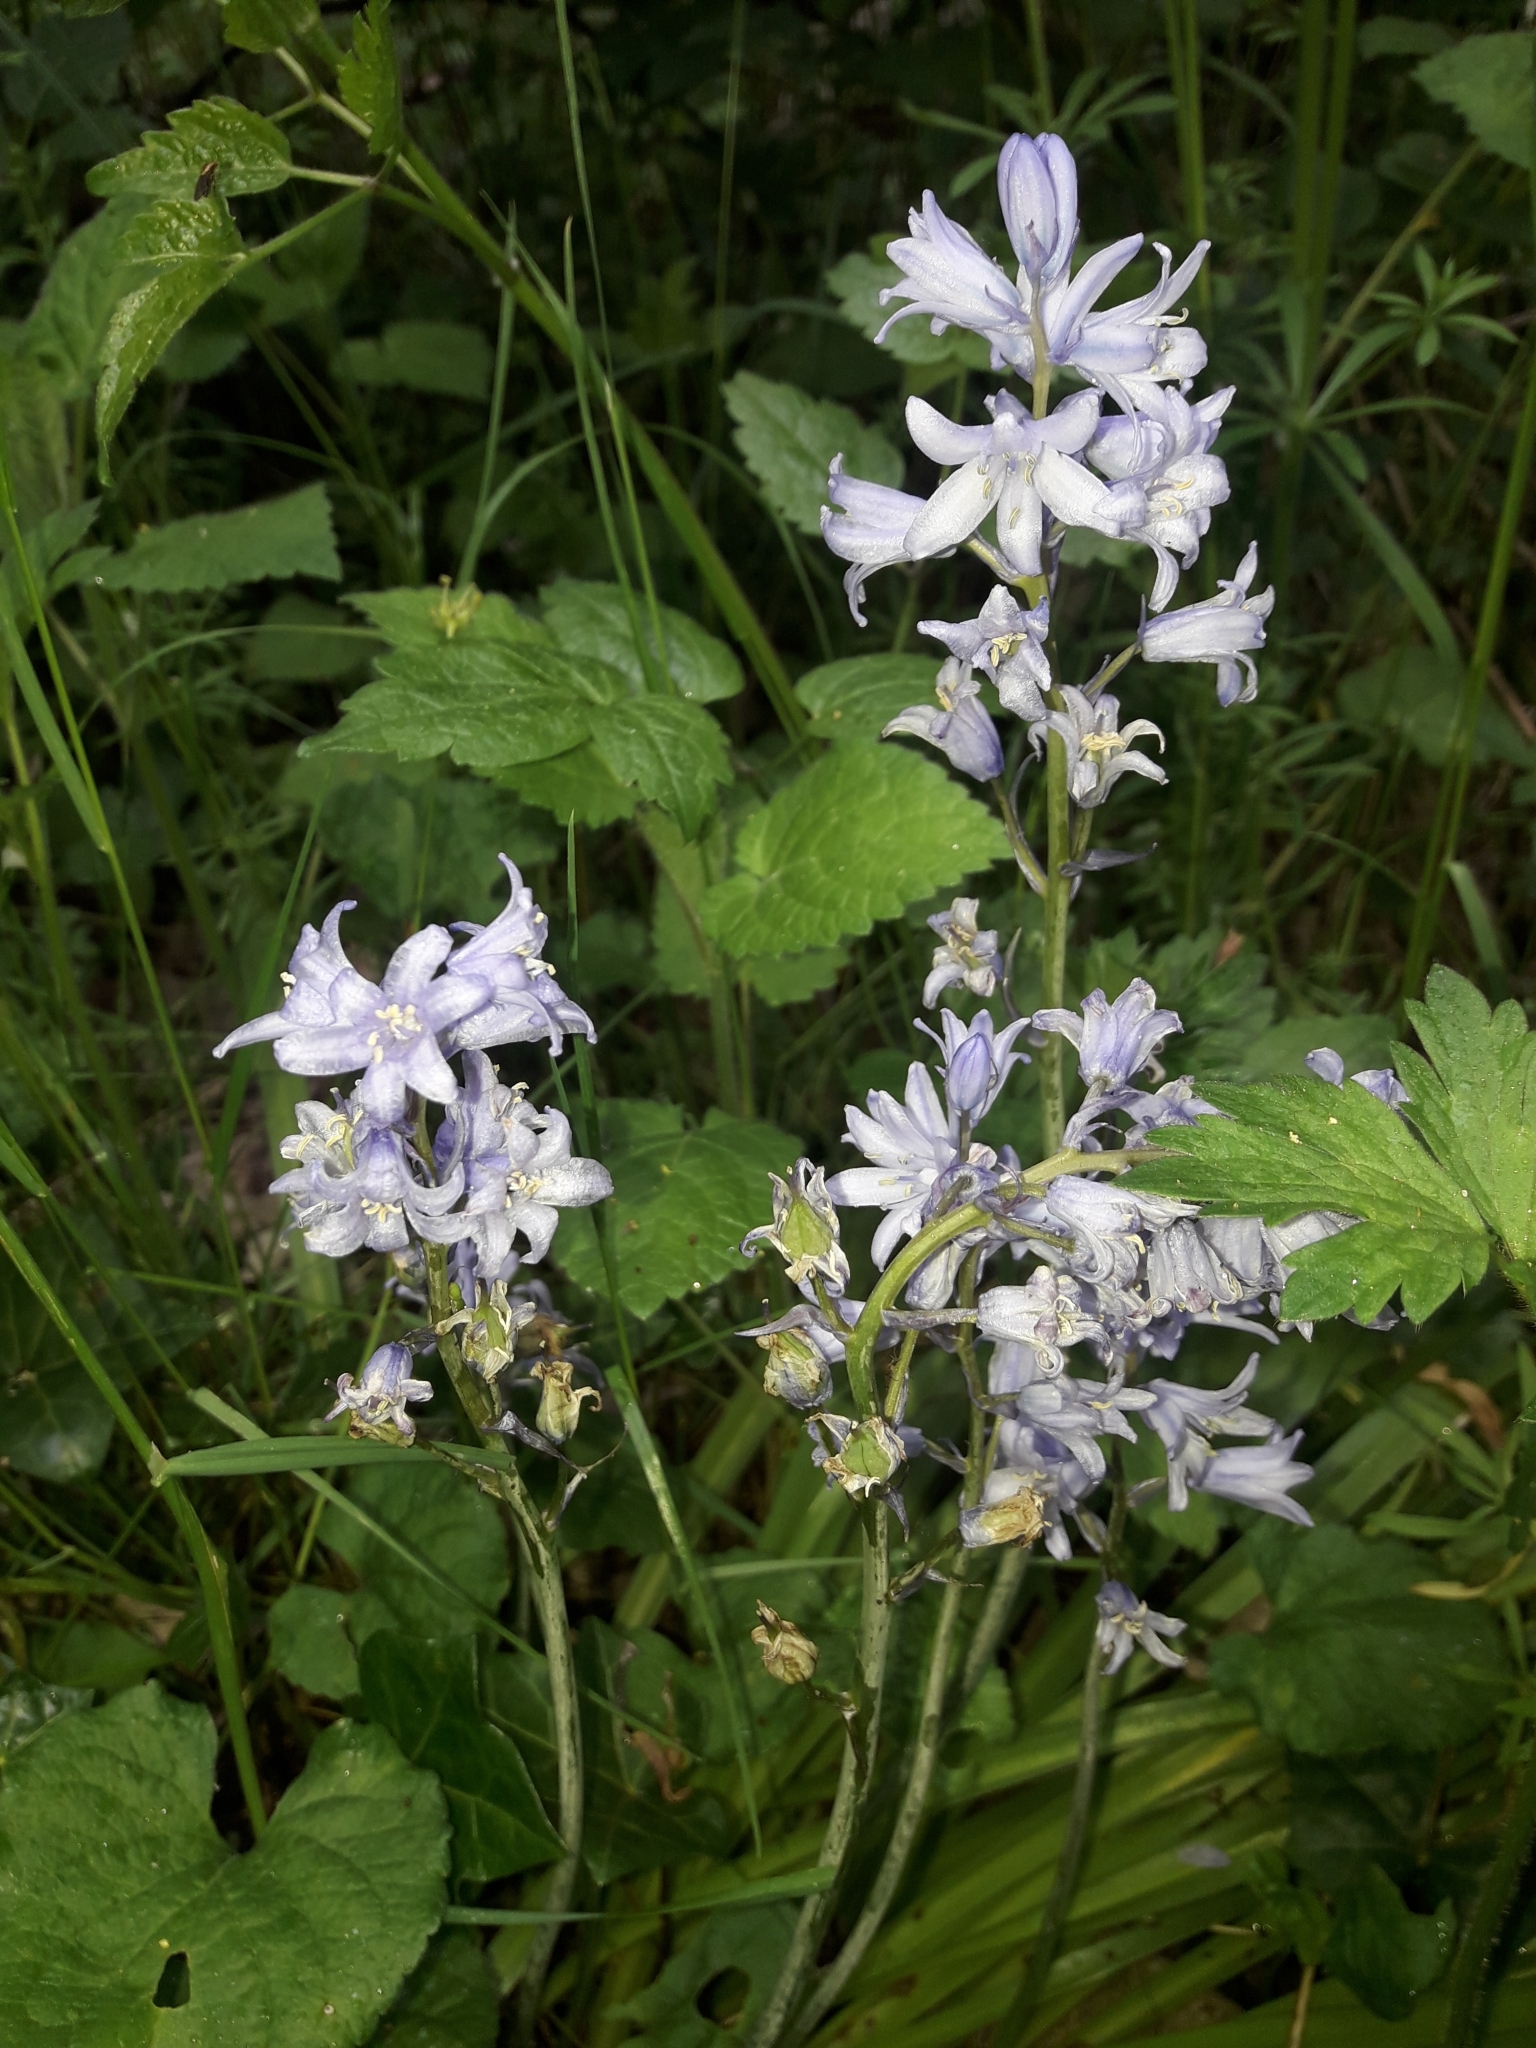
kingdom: Plantae
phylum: Tracheophyta
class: Liliopsida
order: Asparagales
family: Asparagaceae
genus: Hyacinthoides
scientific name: Hyacinthoides massartiana
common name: Hyacinthoides
